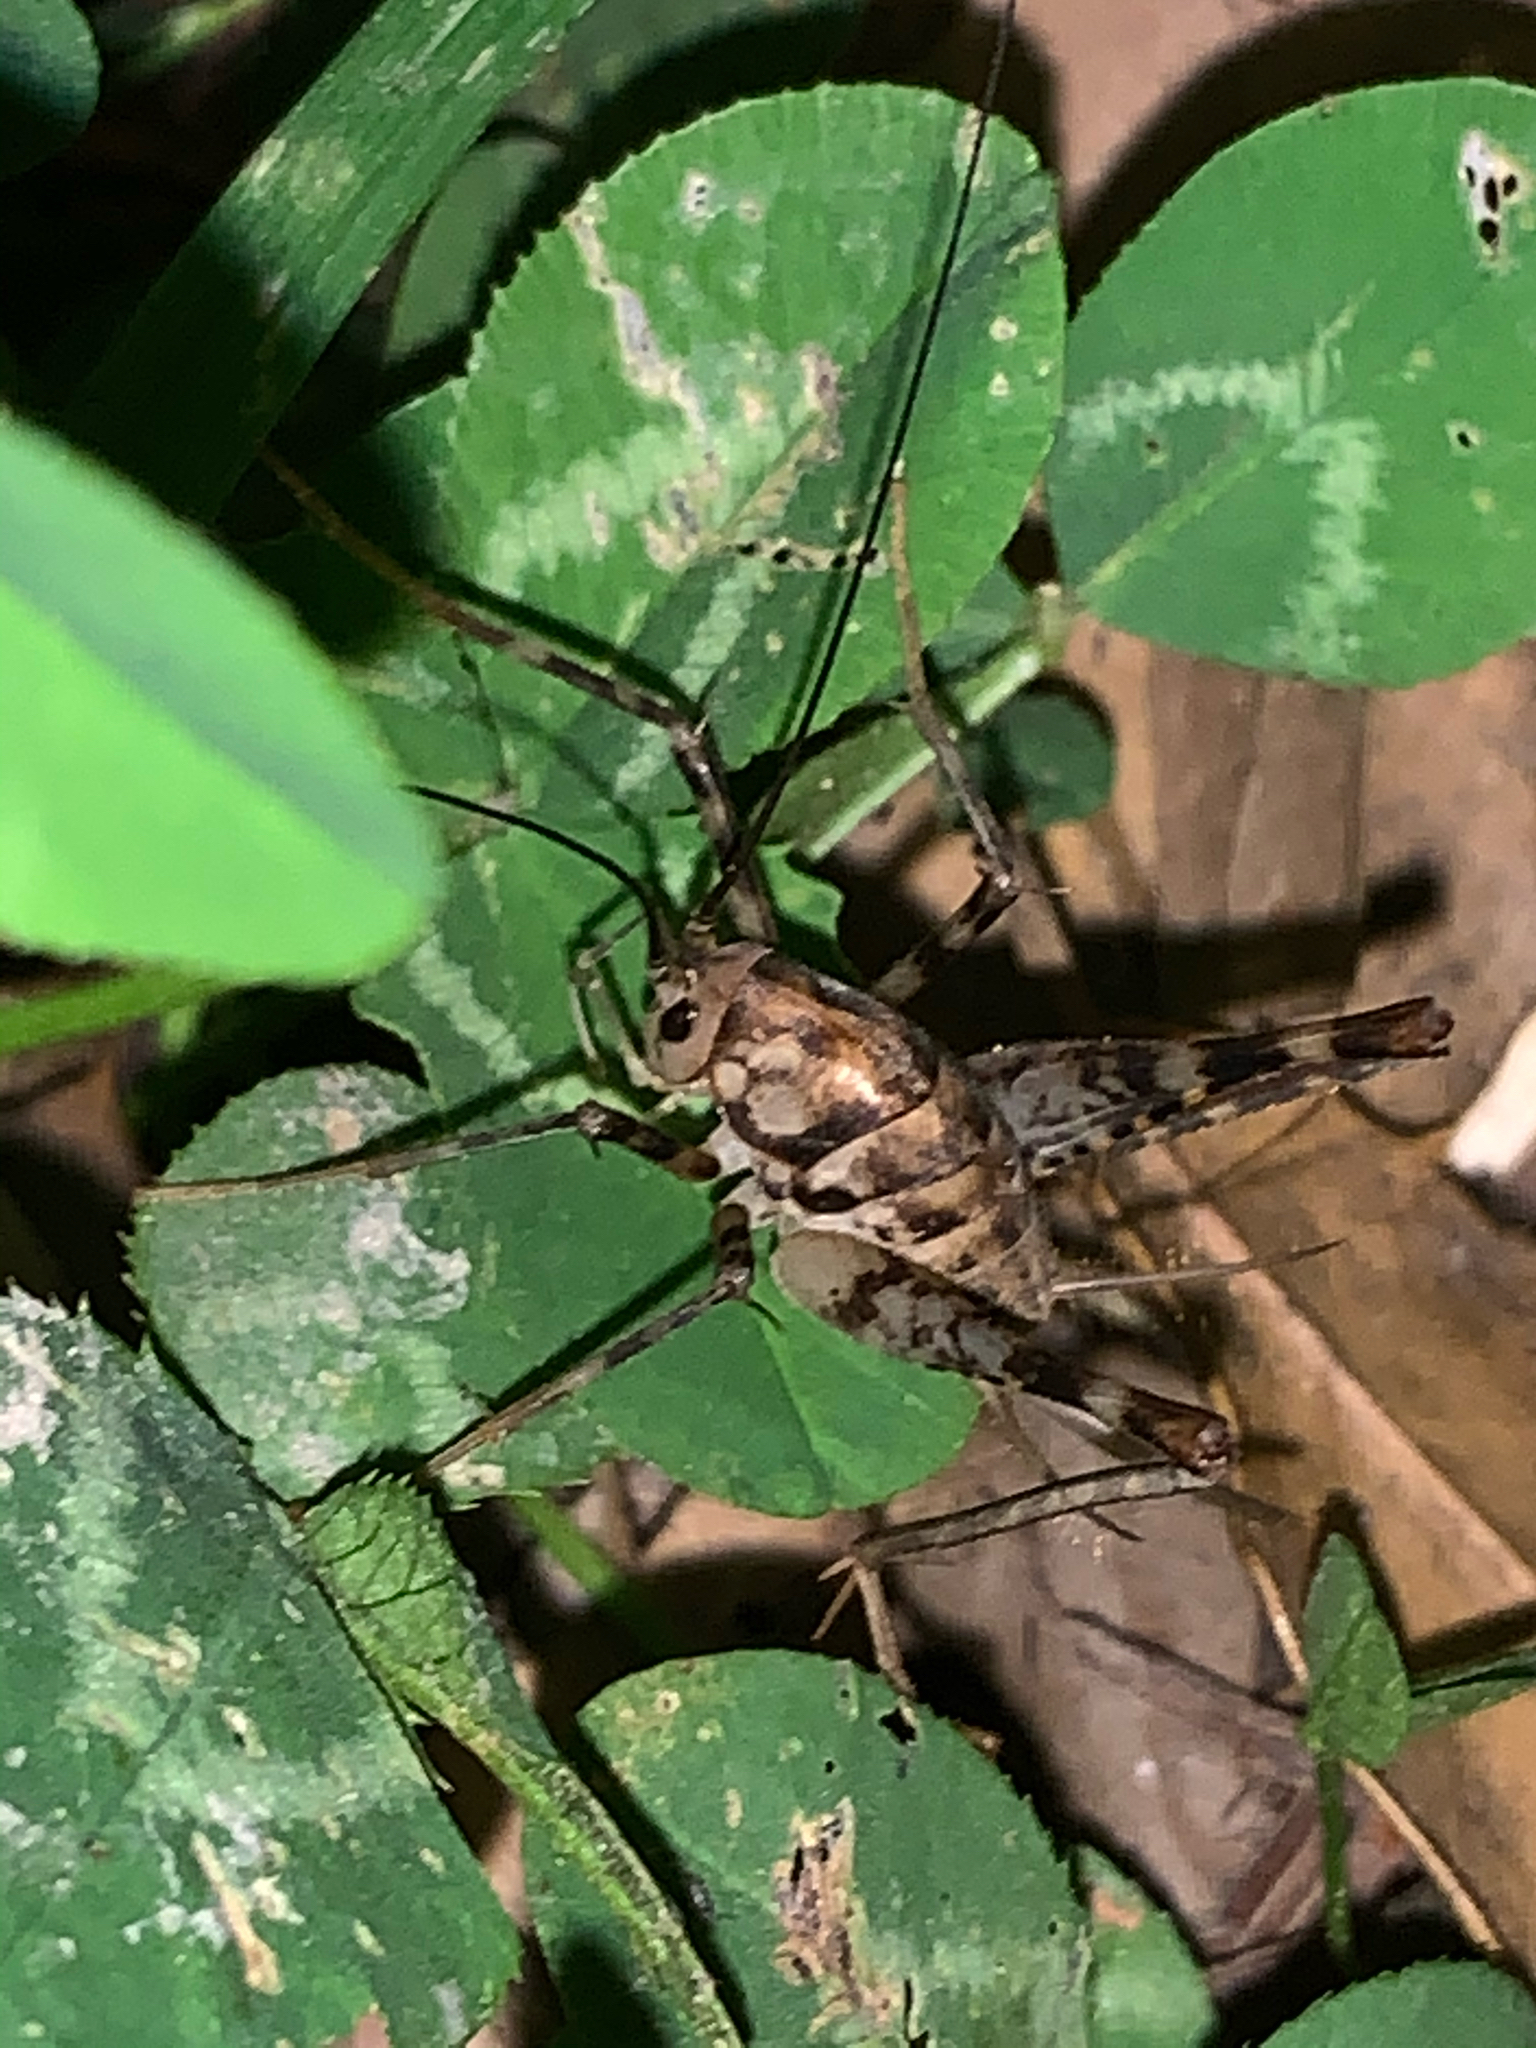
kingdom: Animalia
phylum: Arthropoda
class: Insecta
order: Orthoptera
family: Rhaphidophoridae
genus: Tachycines
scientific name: Tachycines asynamorus
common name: Greenhouse camel cricket
